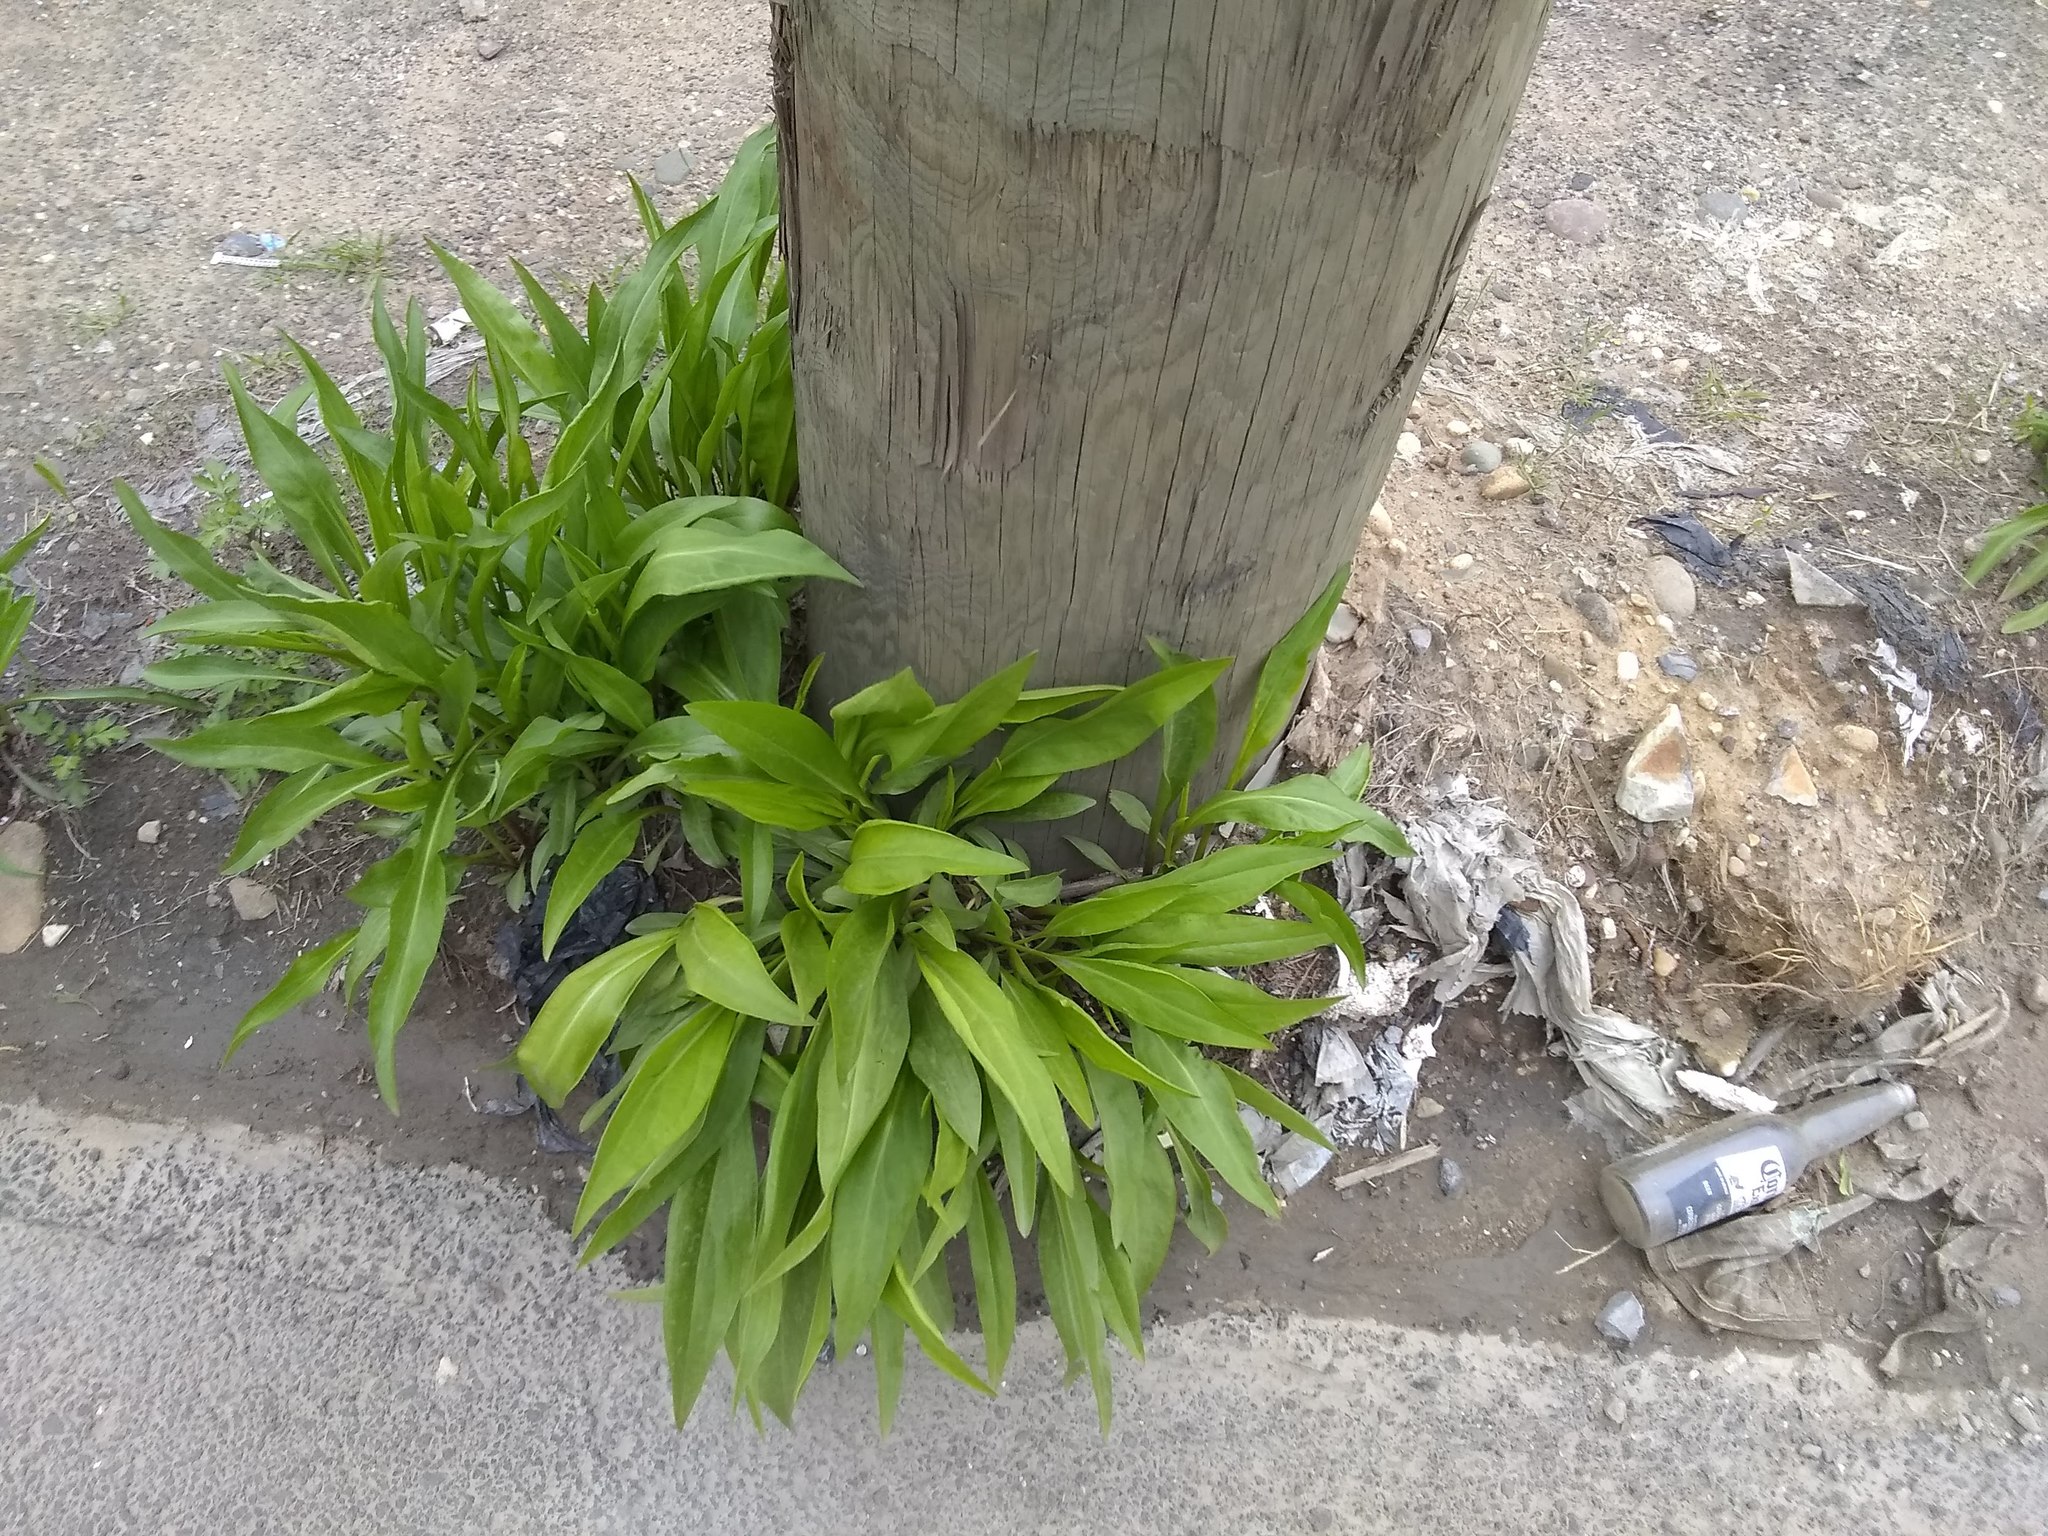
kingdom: Plantae
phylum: Tracheophyta
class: Magnoliopsida
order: Asterales
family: Asteraceae
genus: Solidago
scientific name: Solidago sempervirens
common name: Salt-marsh goldenrod
